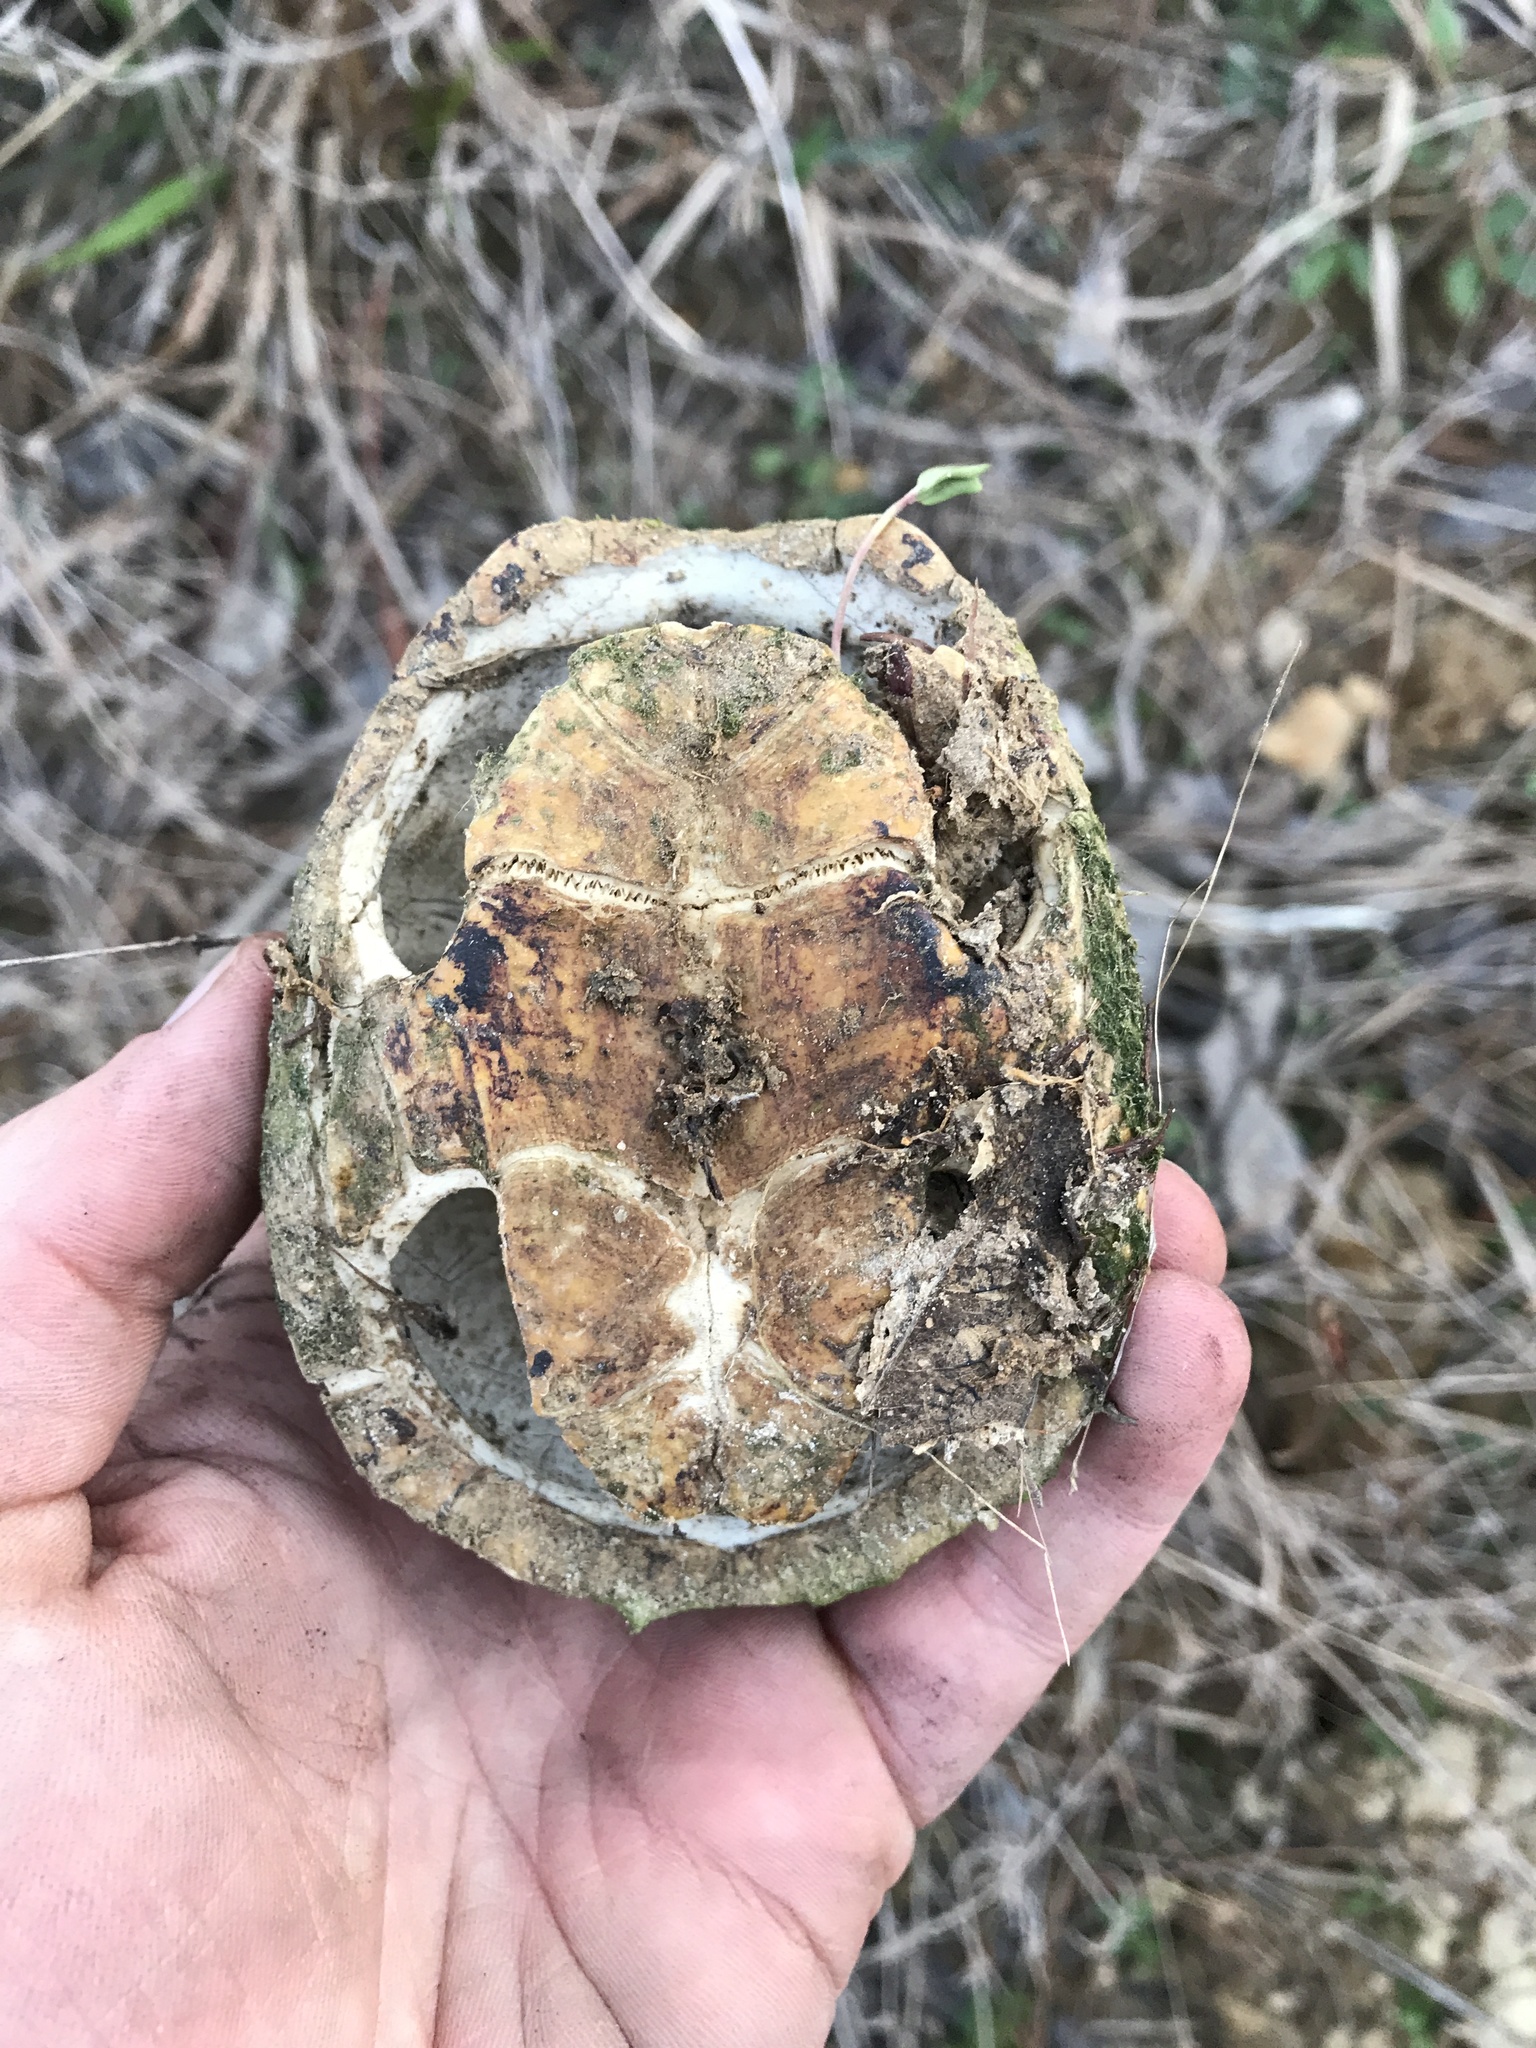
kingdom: Animalia
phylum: Chordata
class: Testudines
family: Kinosternidae
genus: Sternotherus
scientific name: Sternotherus odoratus
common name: Common musk turtle
